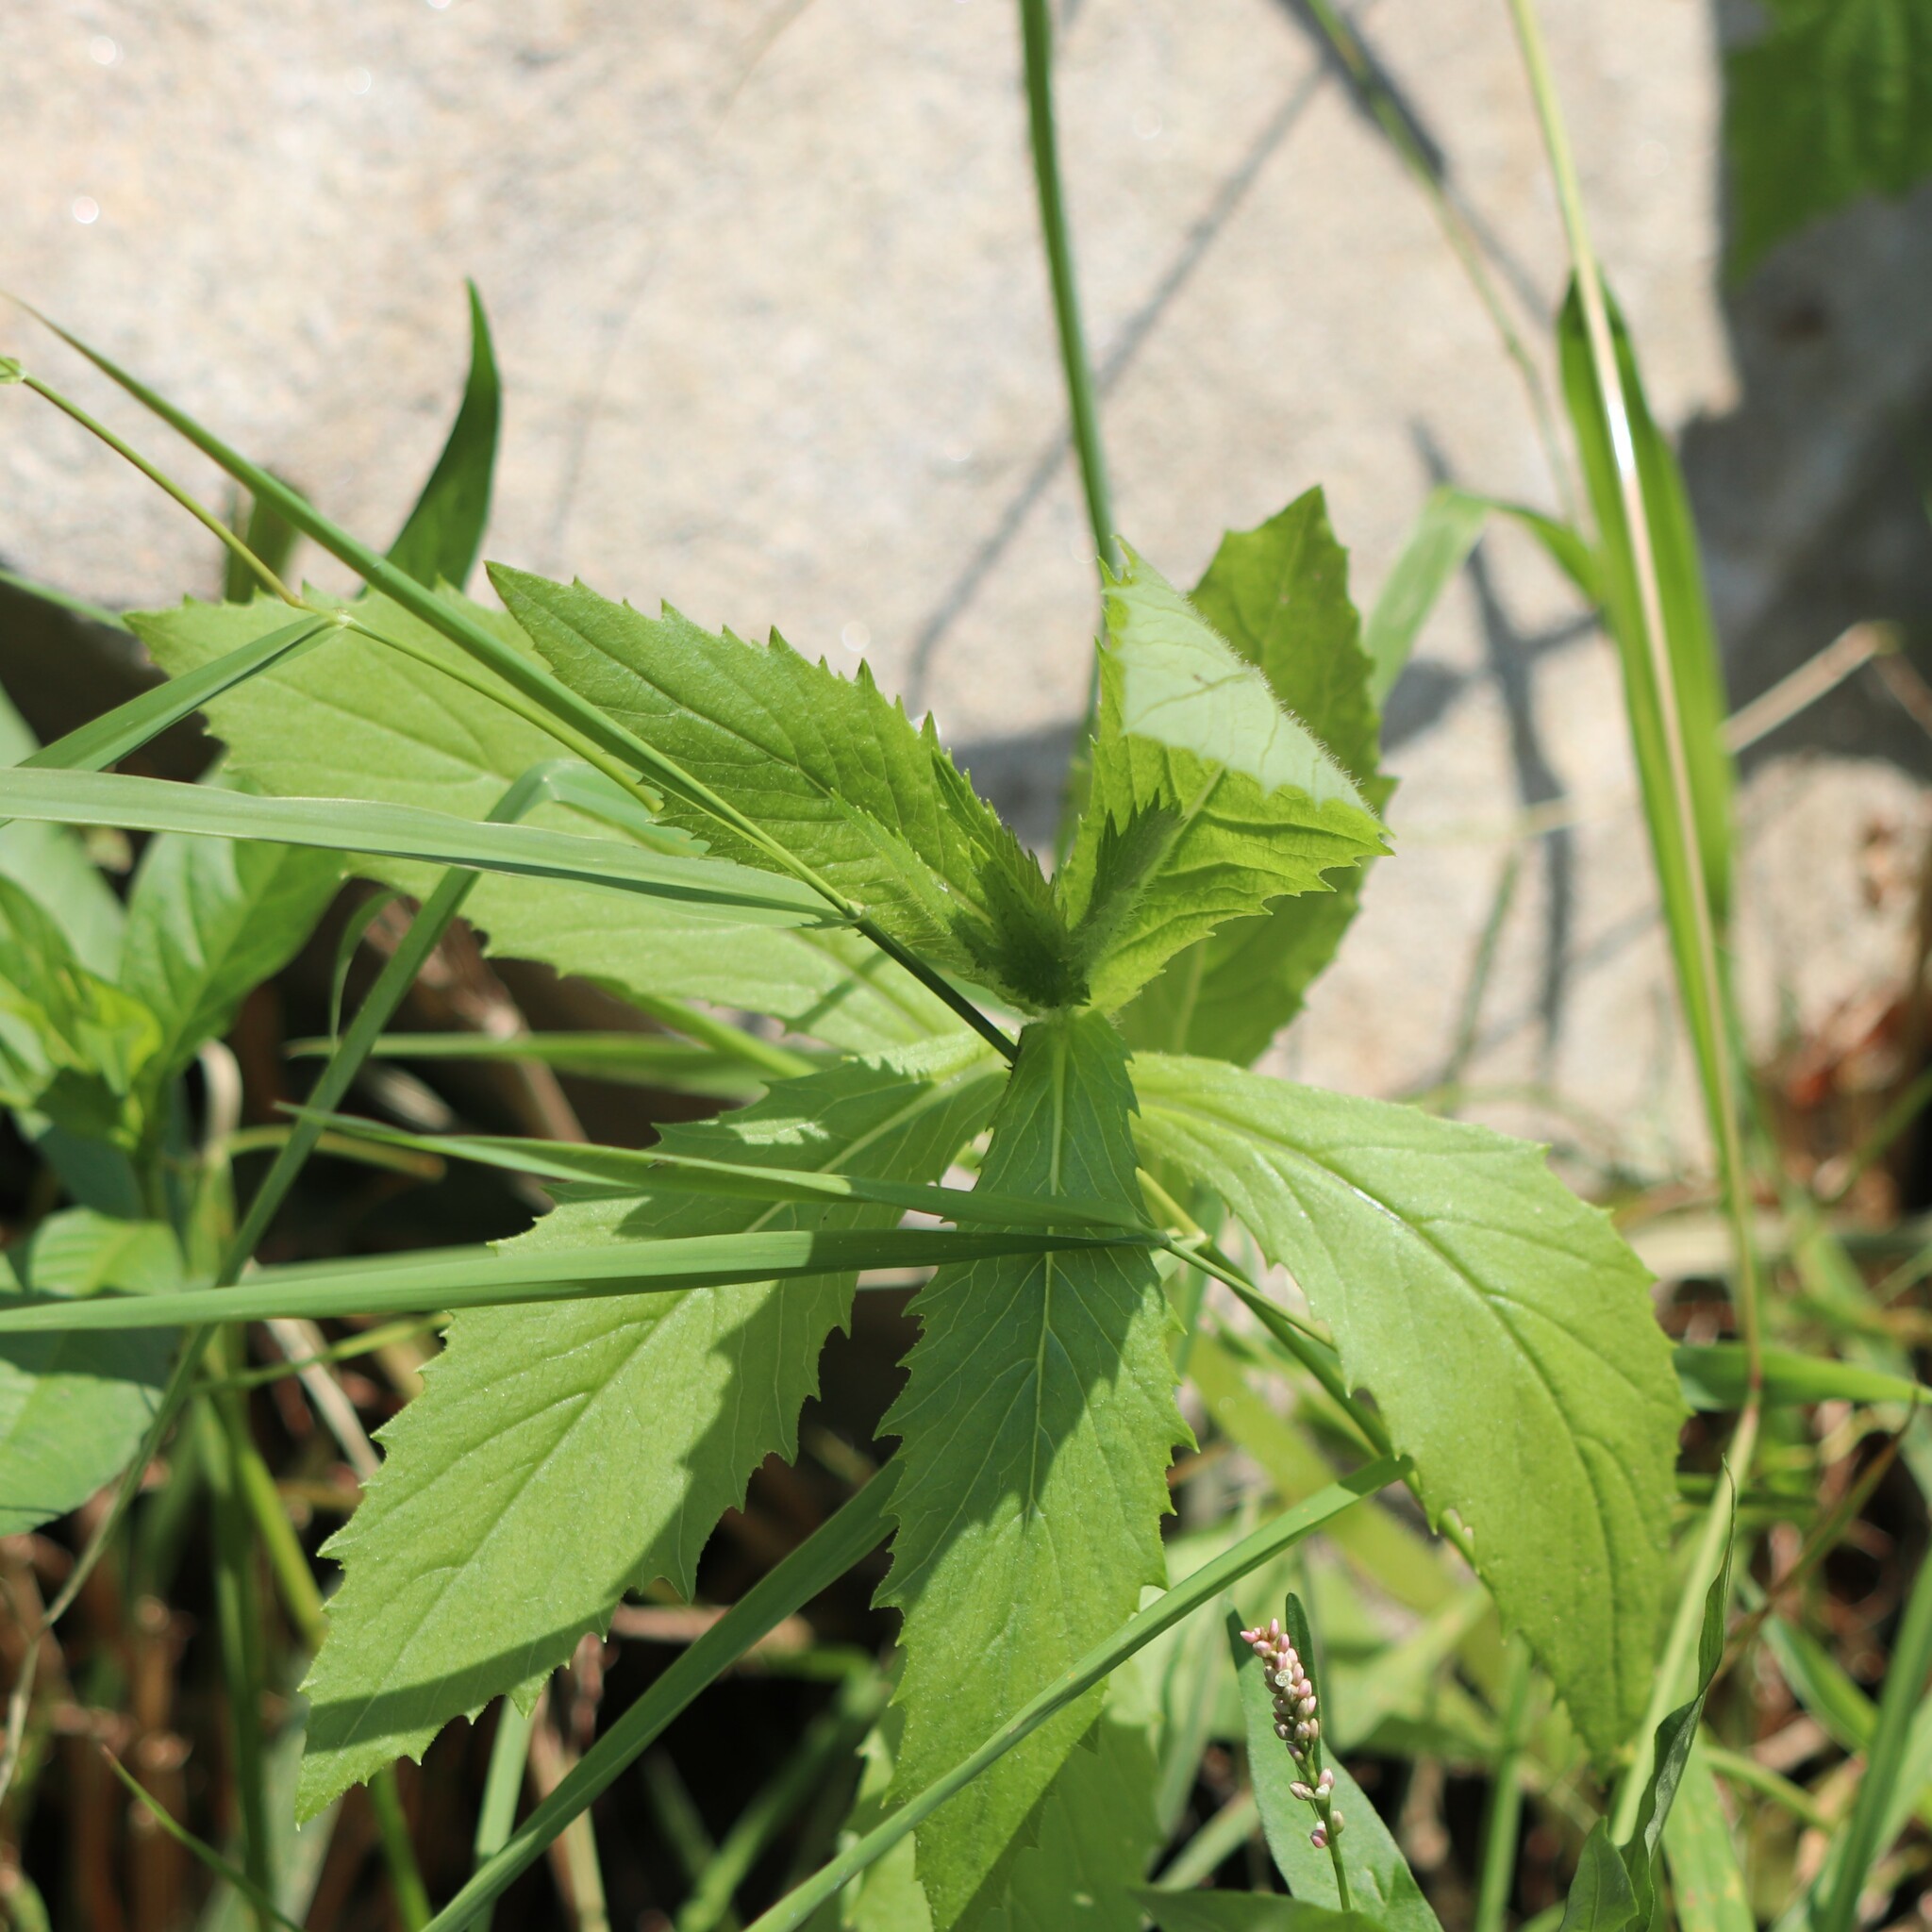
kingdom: Plantae
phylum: Tracheophyta
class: Magnoliopsida
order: Asterales
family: Asteraceae
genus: Erechtites
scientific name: Erechtites hieraciifolius
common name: American burnweed
